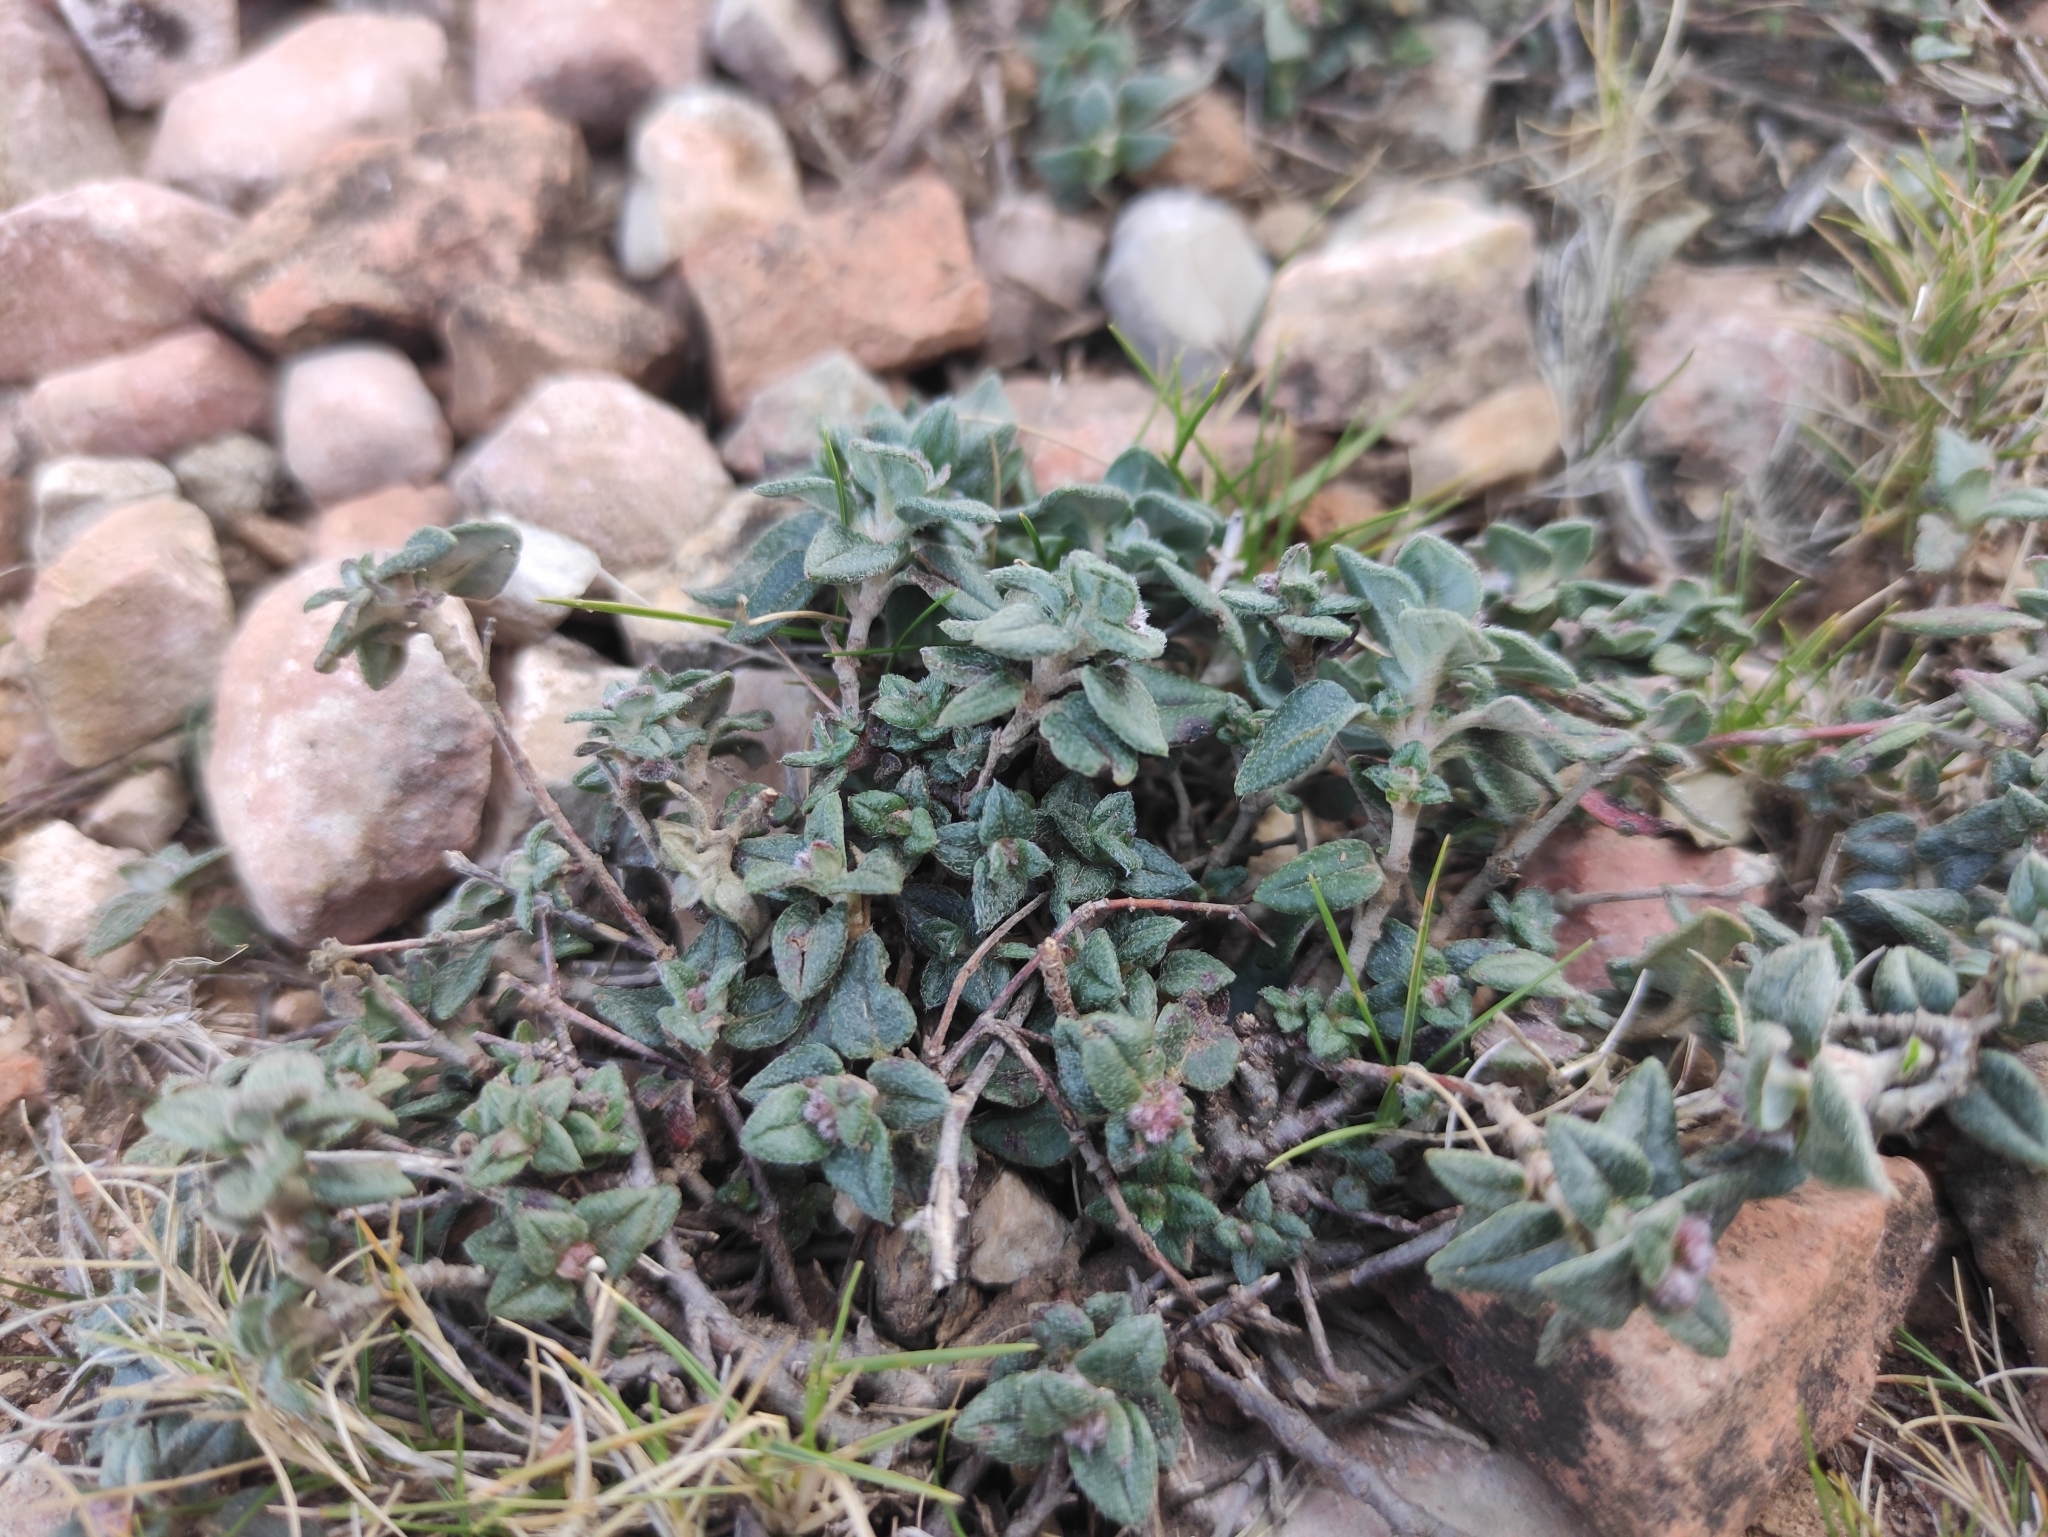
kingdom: Plantae
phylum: Tracheophyta
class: Magnoliopsida
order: Malvales
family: Cistaceae
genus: Helianthemum
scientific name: Helianthemum marifolium
